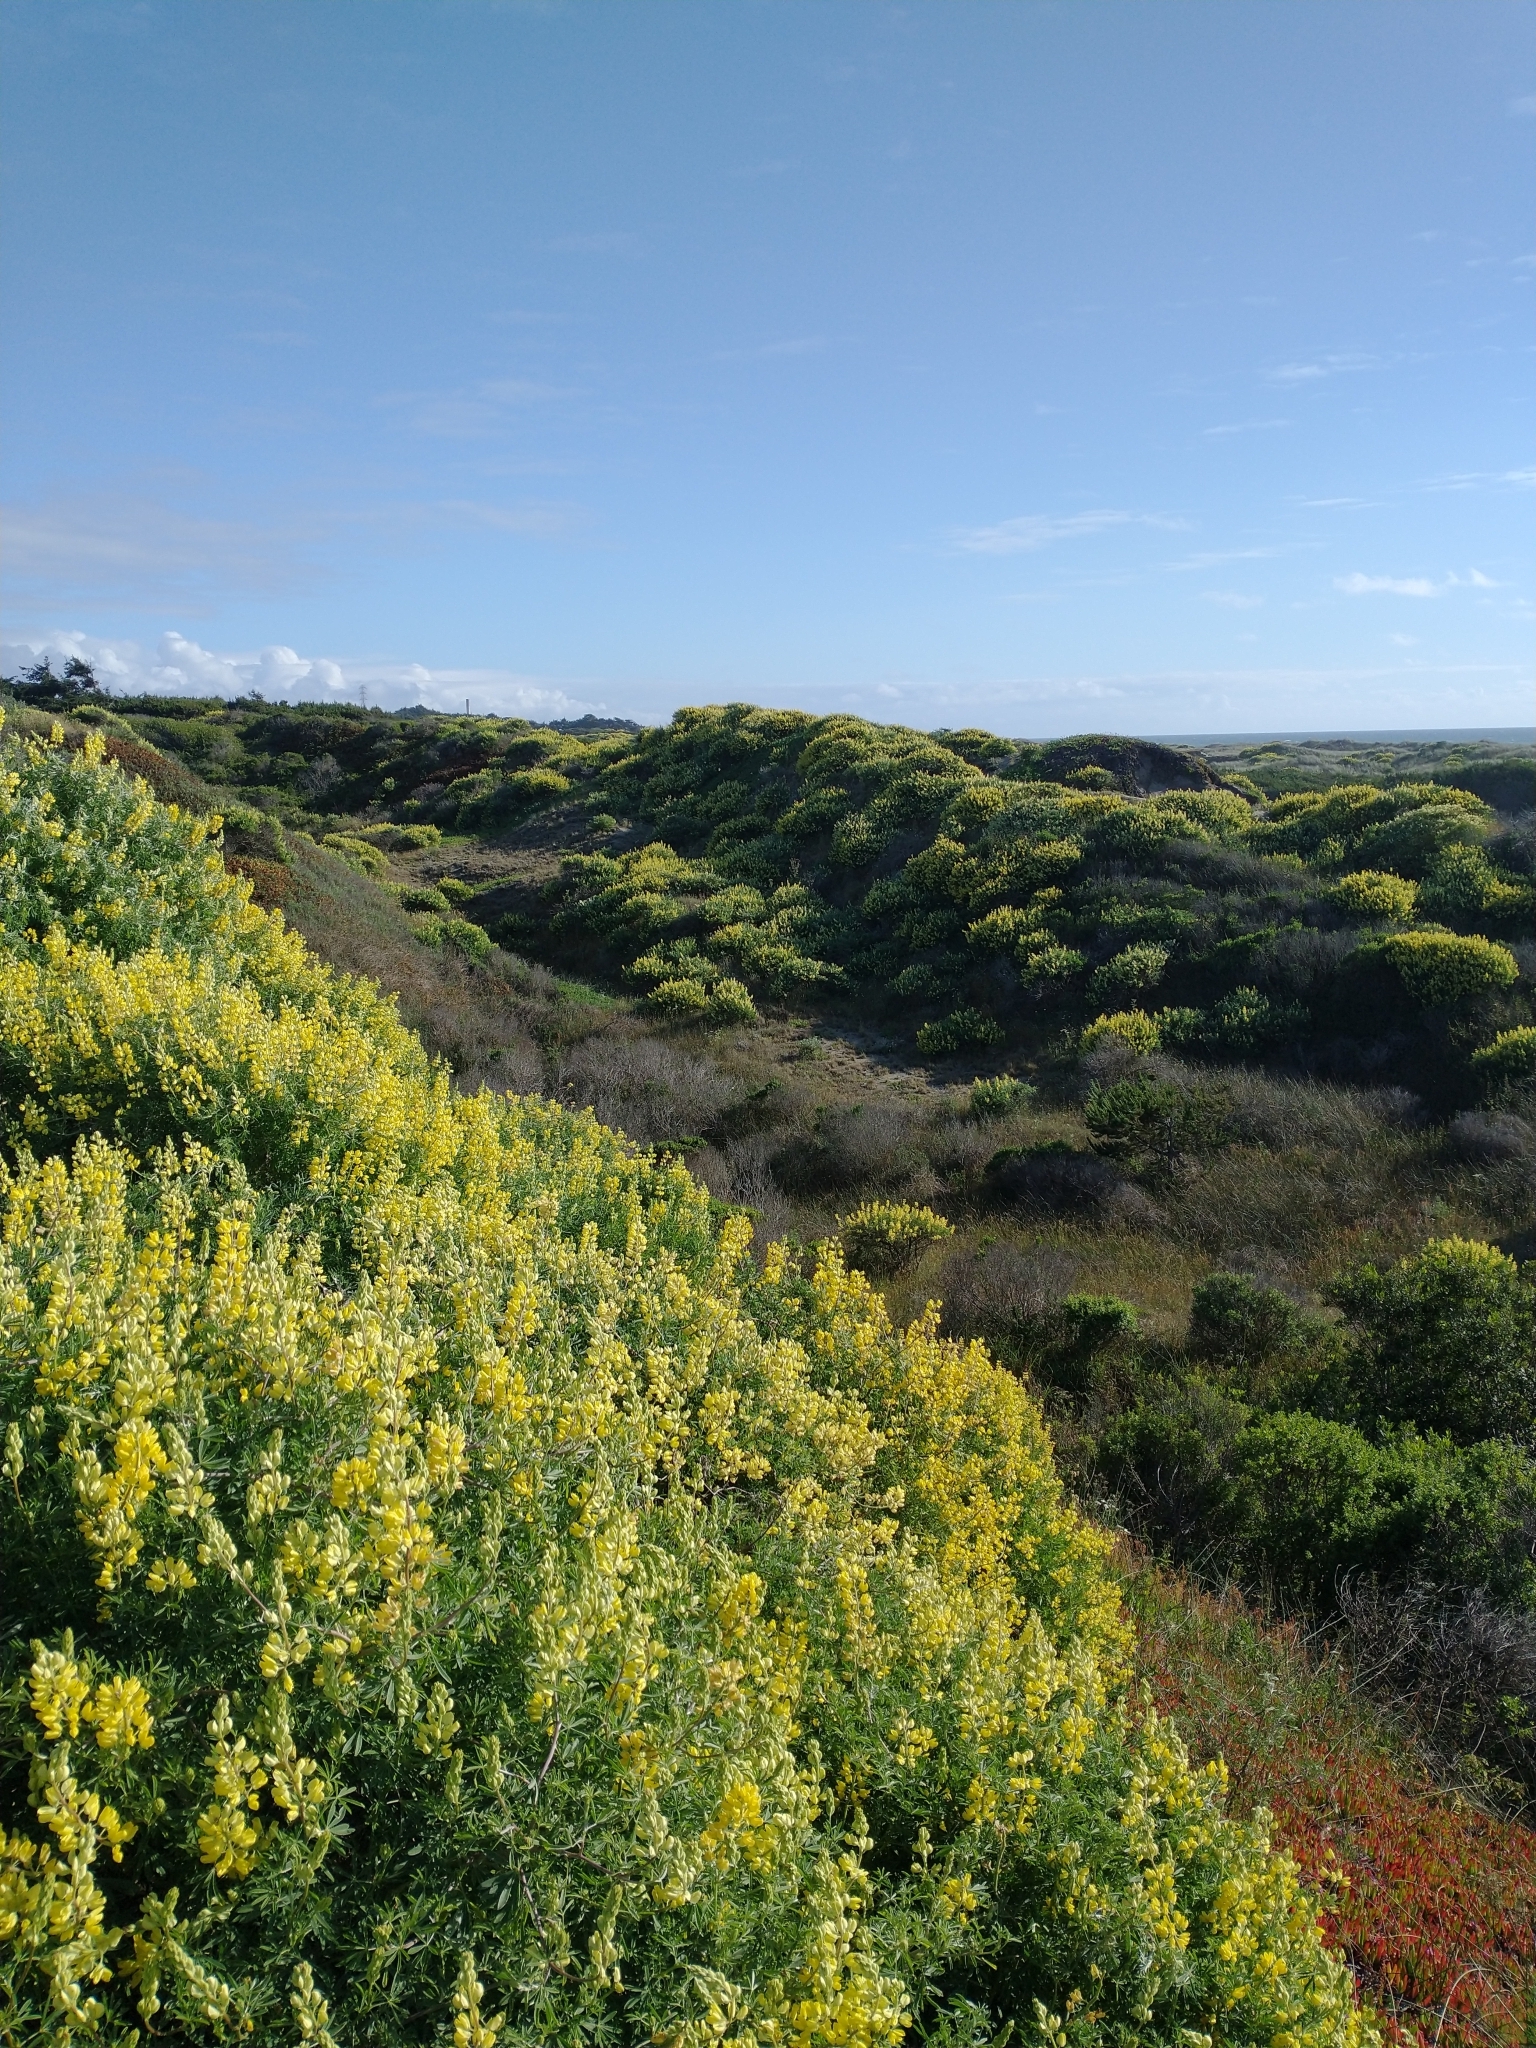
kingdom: Plantae
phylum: Tracheophyta
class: Magnoliopsida
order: Fabales
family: Fabaceae
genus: Lupinus
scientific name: Lupinus arboreus
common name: Yellow bush lupine
